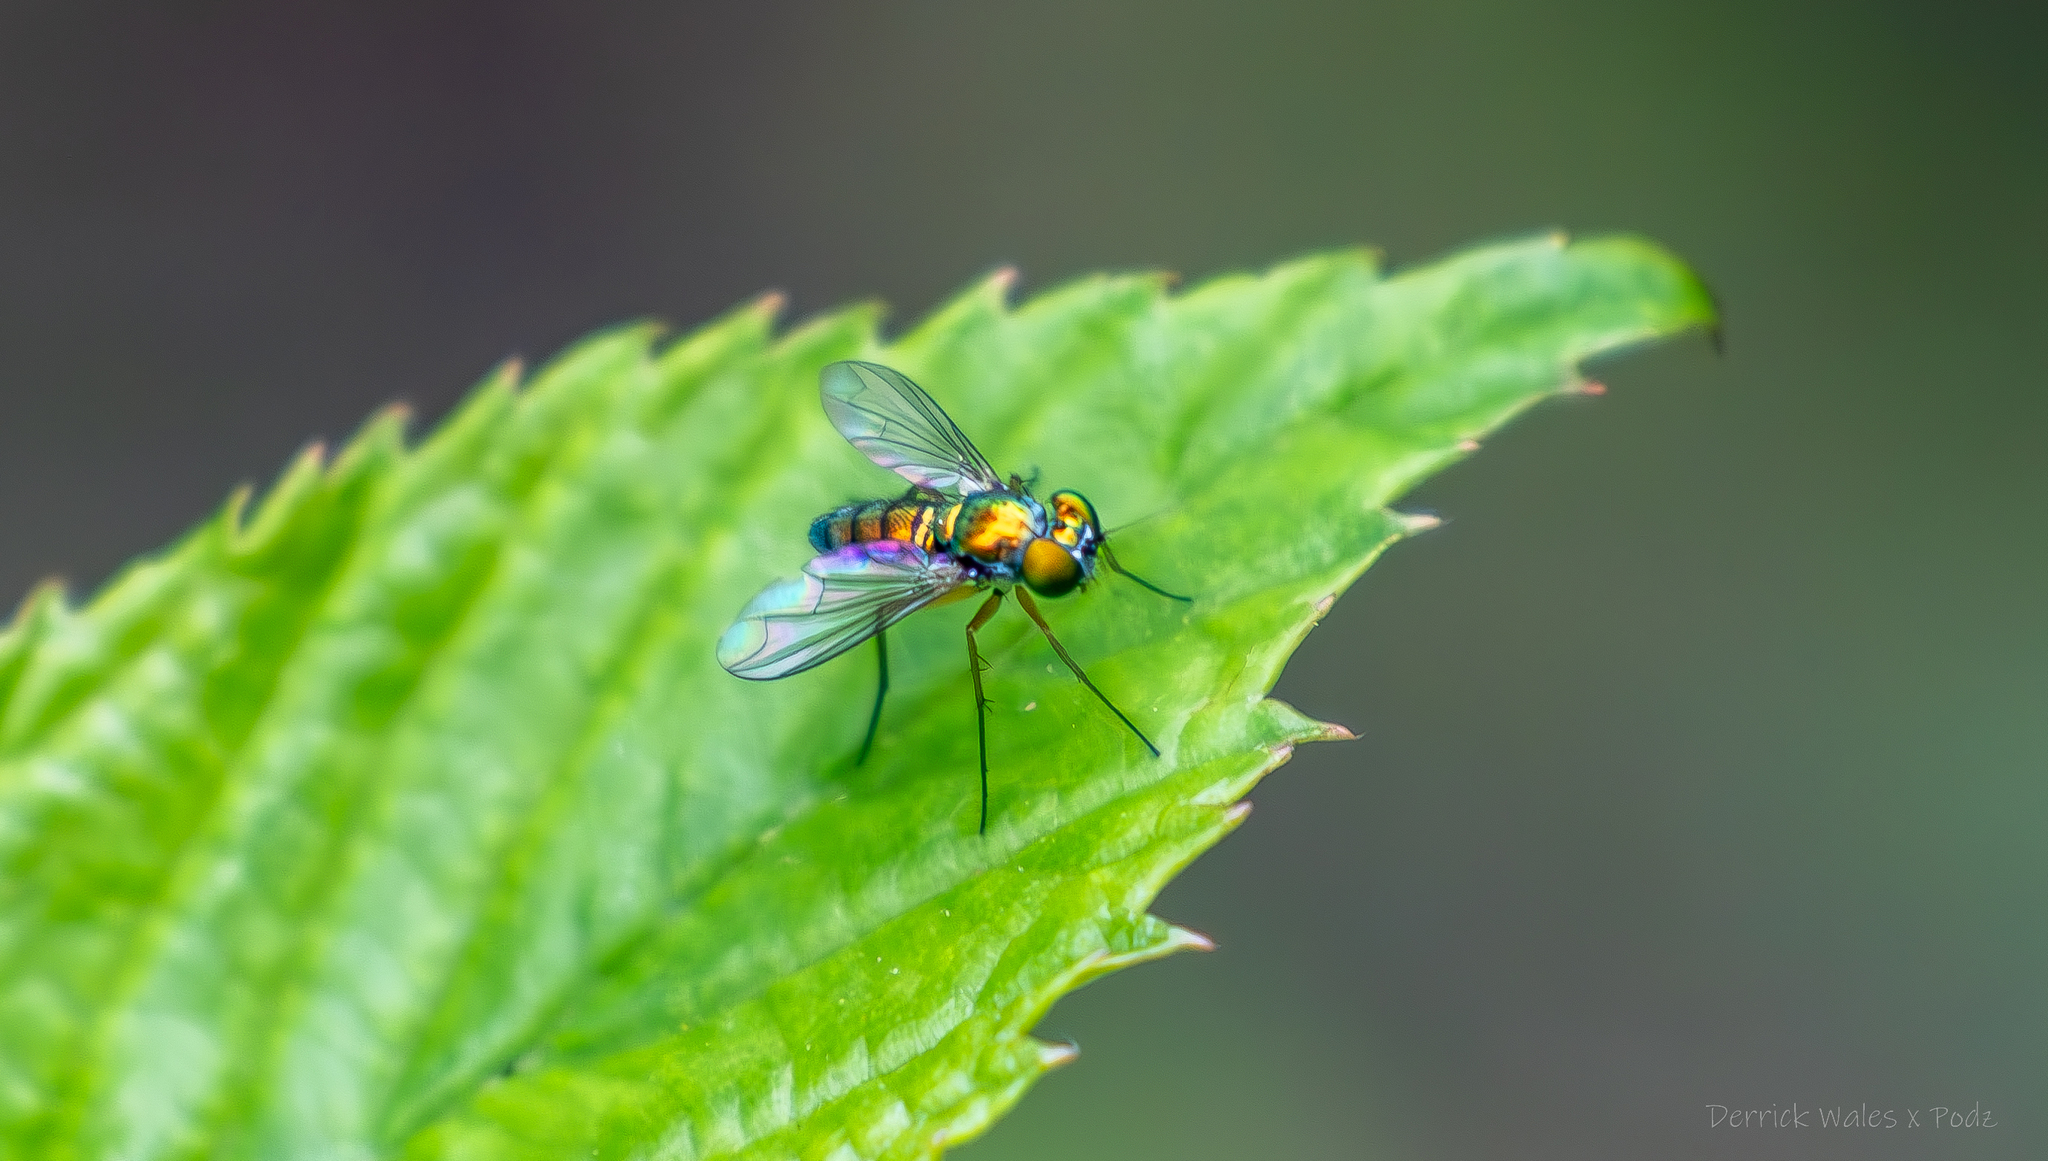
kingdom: Animalia
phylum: Arthropoda
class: Insecta
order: Diptera
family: Dolichopodidae
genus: Condylostylus
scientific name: Condylostylus
